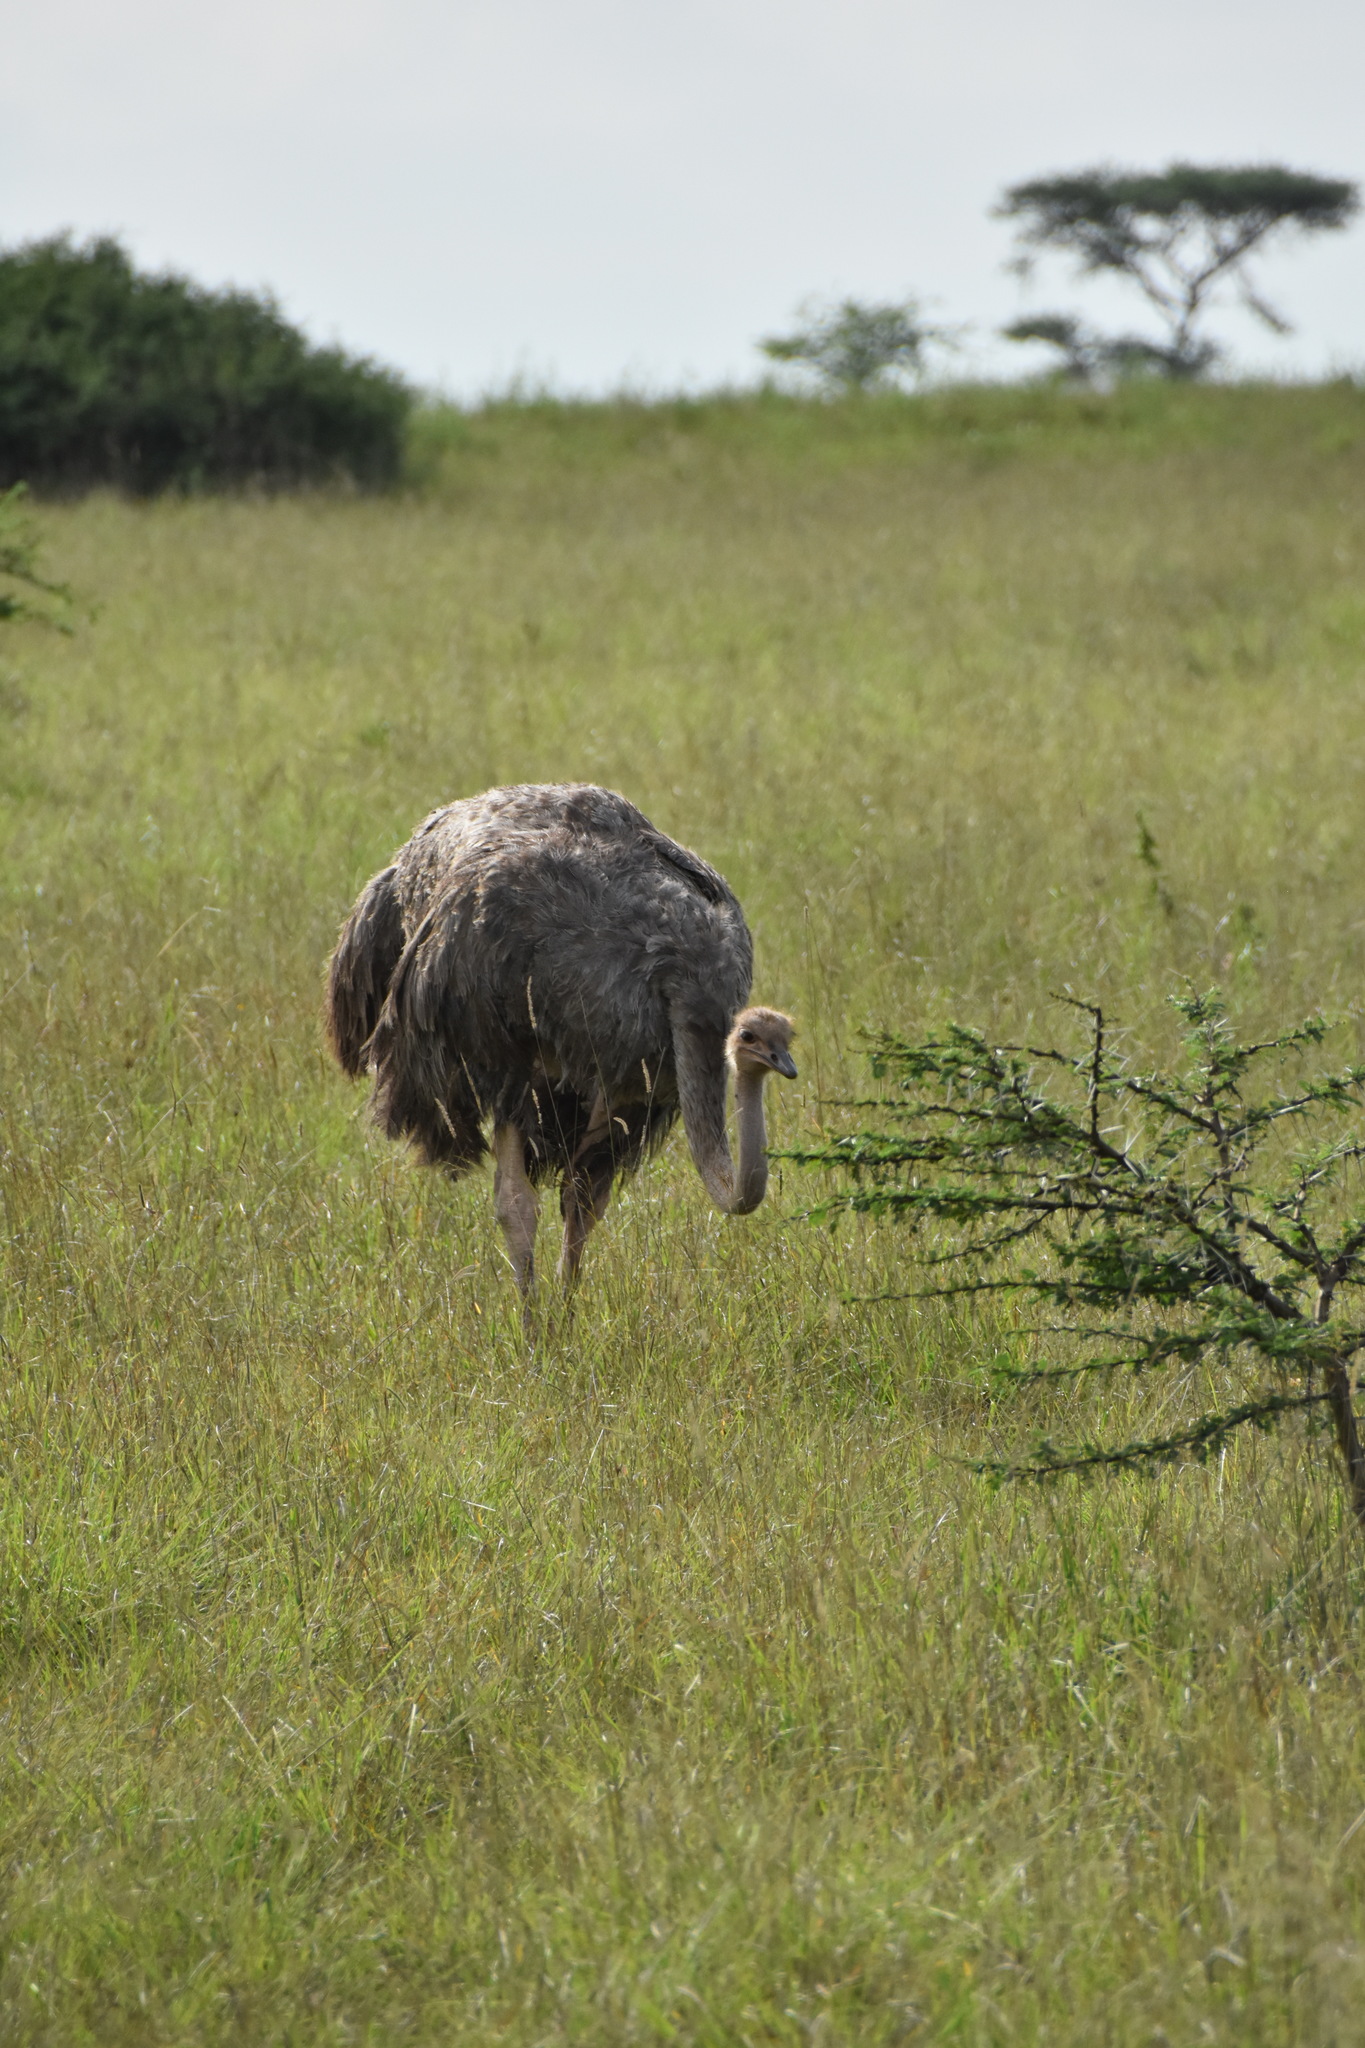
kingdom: Animalia
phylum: Chordata
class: Aves
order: Struthioniformes
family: Struthionidae
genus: Struthio
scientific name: Struthio camelus
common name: Common ostrich
